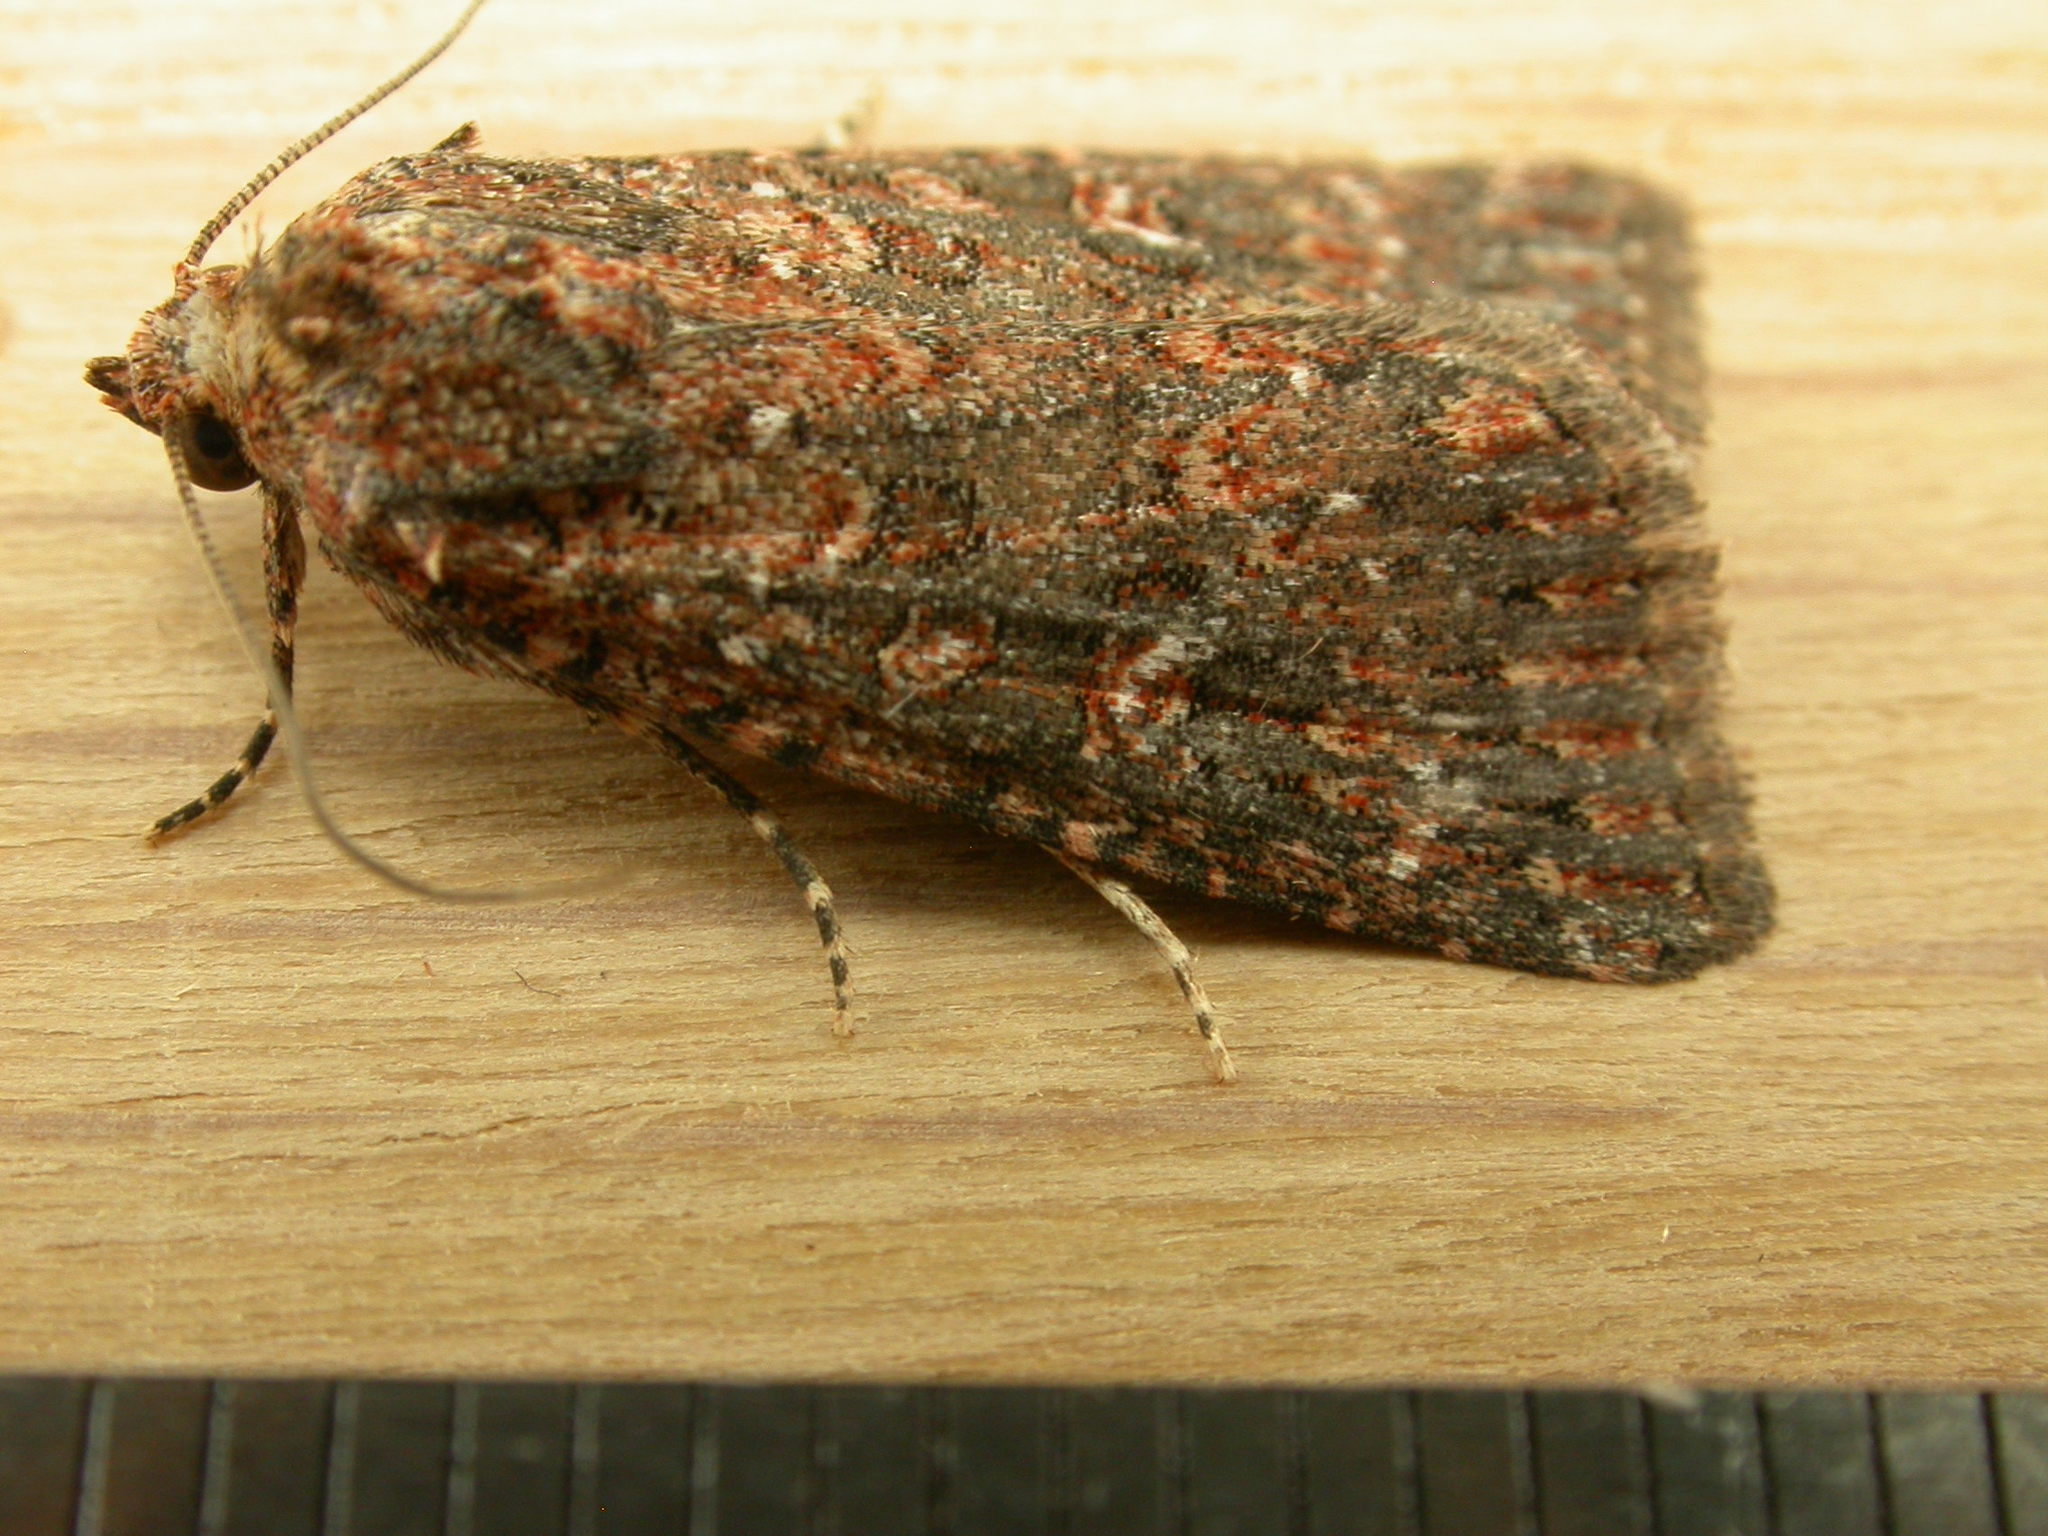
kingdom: Animalia
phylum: Arthropoda
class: Insecta
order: Lepidoptera
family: Noctuidae
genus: Hypoperigea
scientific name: Hypoperigea tonsa
